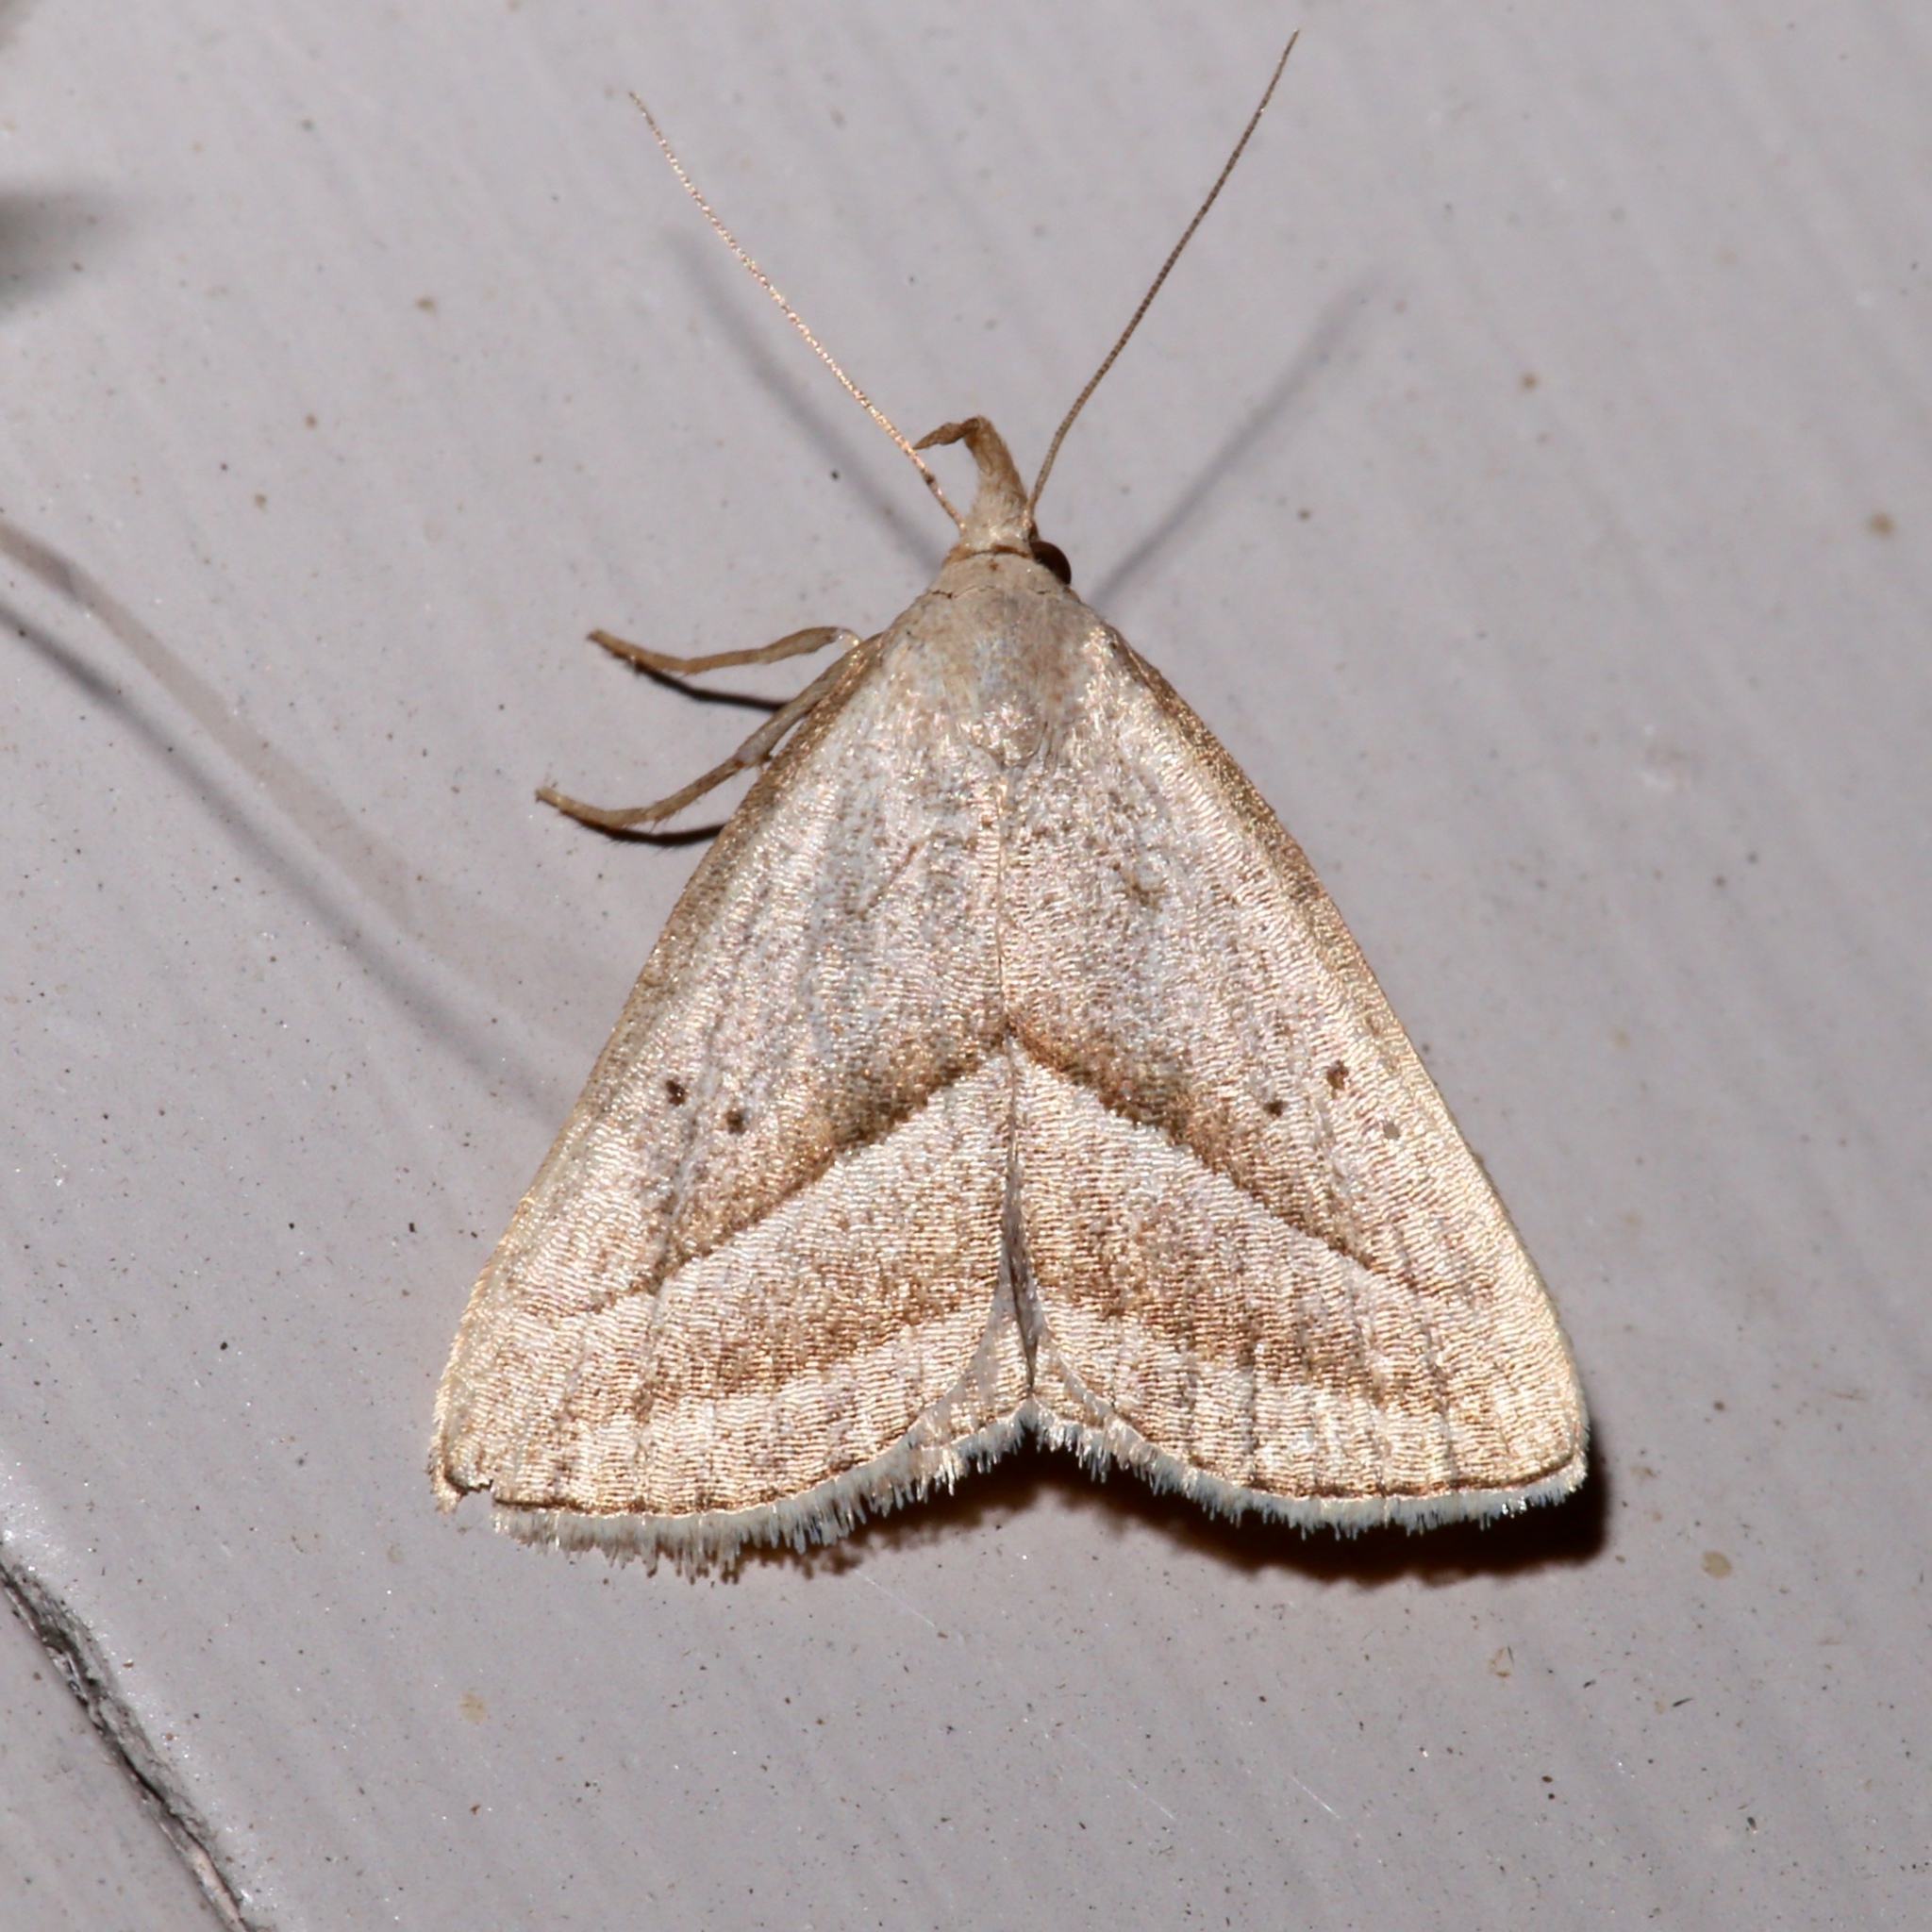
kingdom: Animalia
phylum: Arthropoda
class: Insecta
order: Lepidoptera
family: Erebidae
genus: Macrochilo
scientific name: Macrochilo absorptalis
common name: Slant-lined owlet
